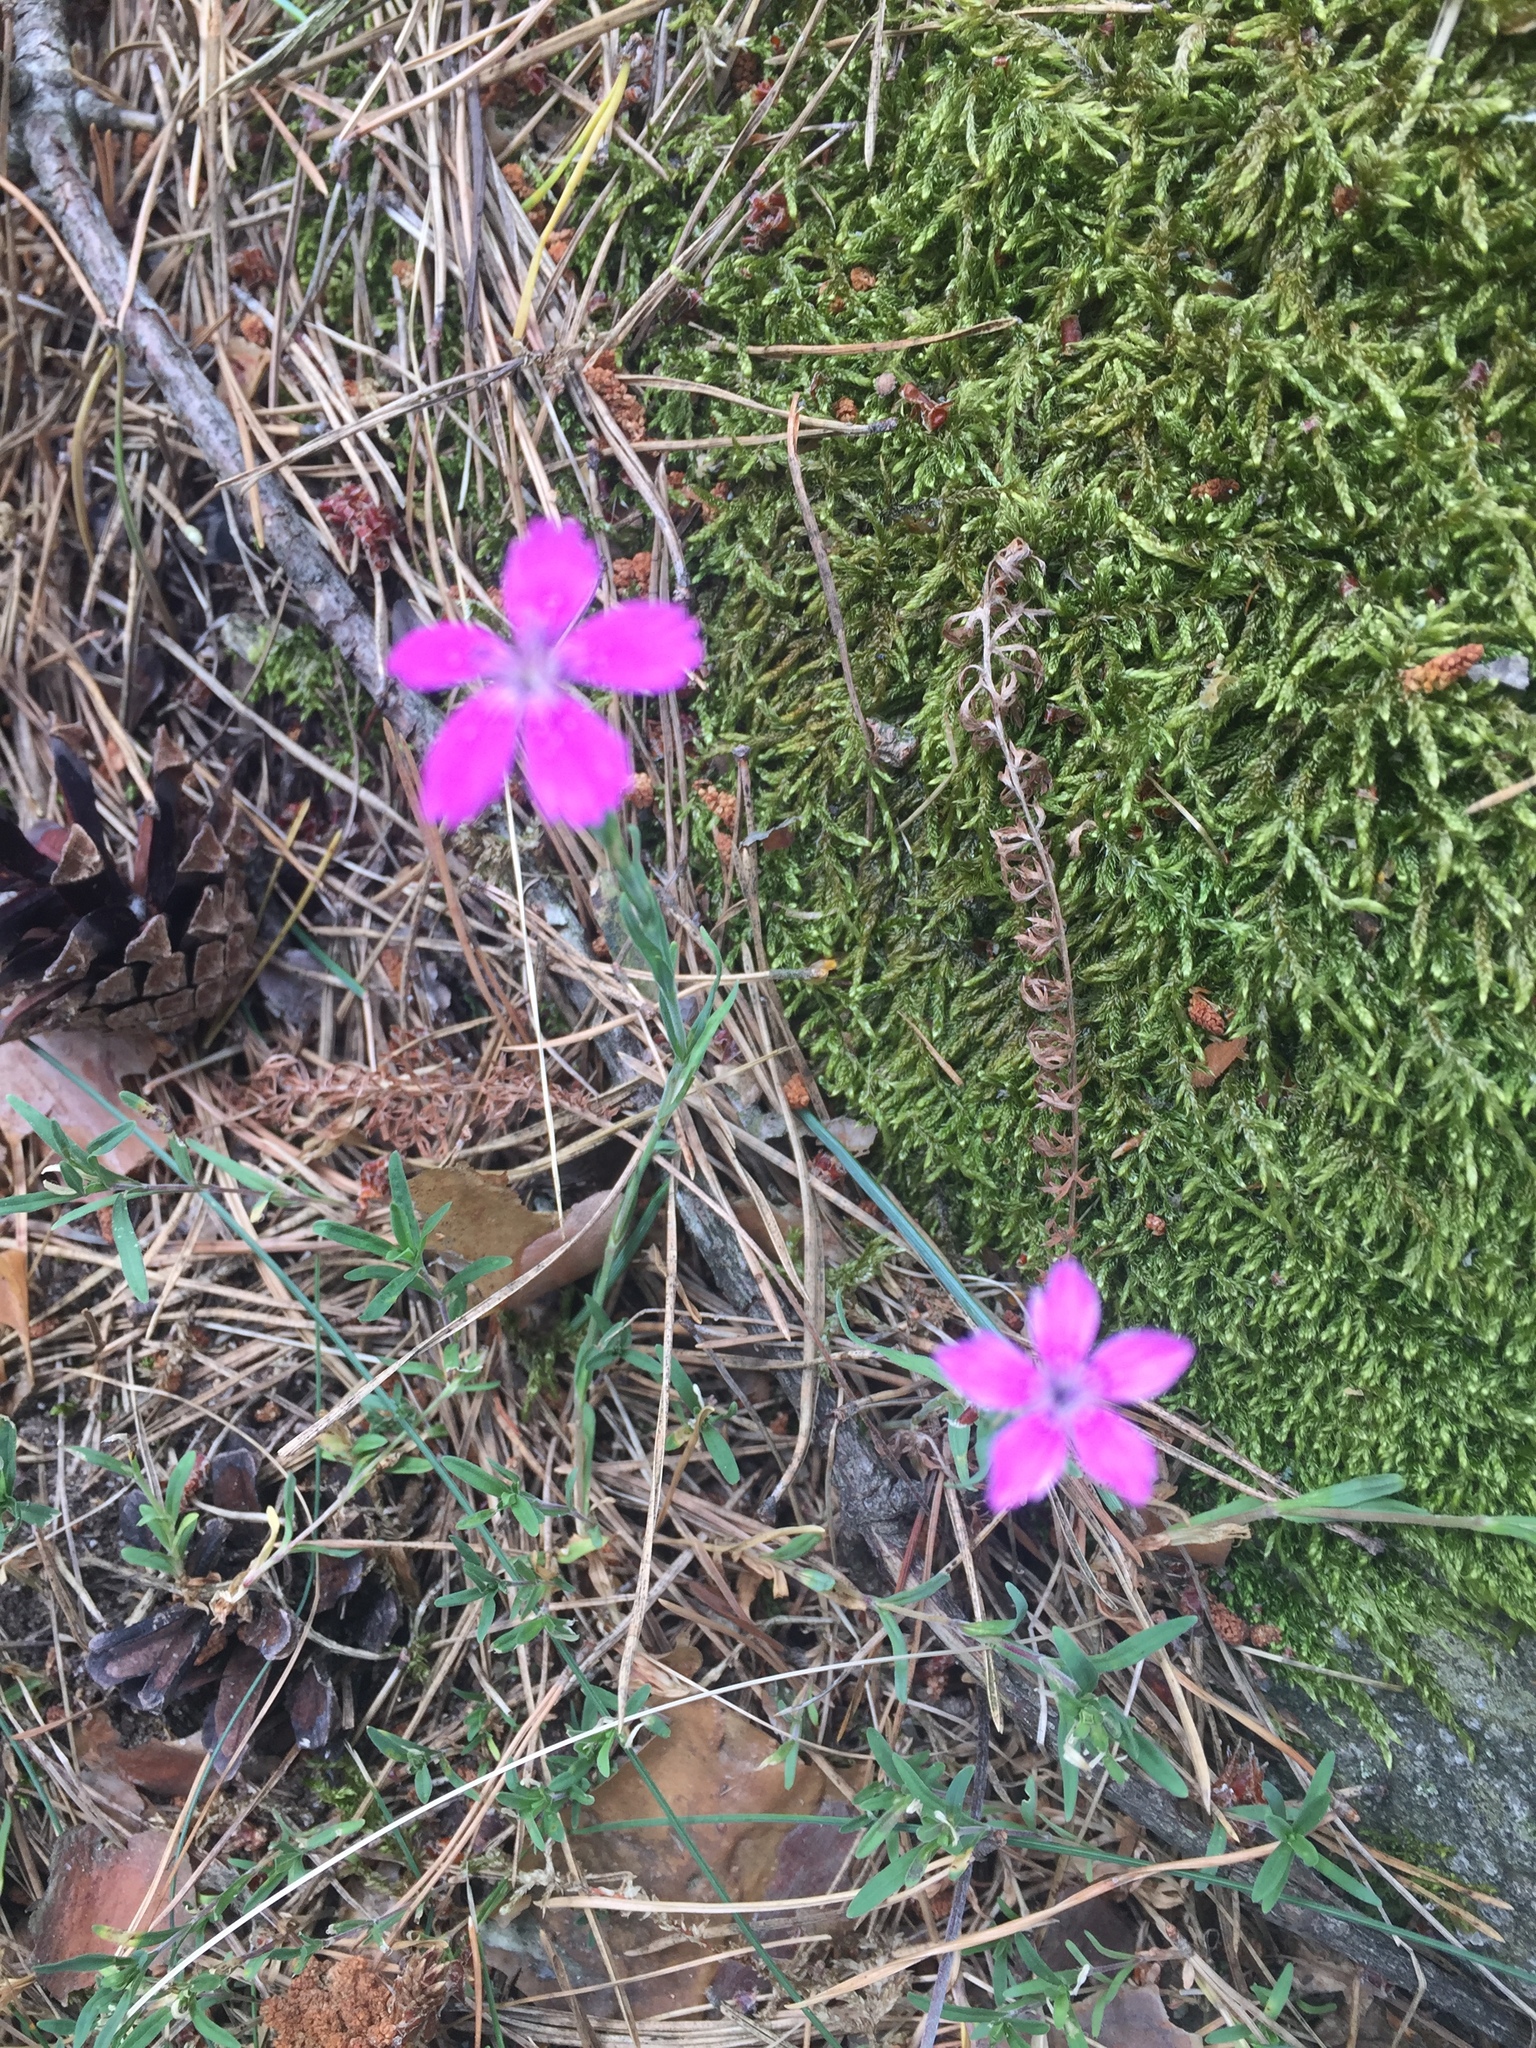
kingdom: Plantae
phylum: Tracheophyta
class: Magnoliopsida
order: Caryophyllales
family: Caryophyllaceae
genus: Dianthus
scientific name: Dianthus deltoides
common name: Maiden pink
